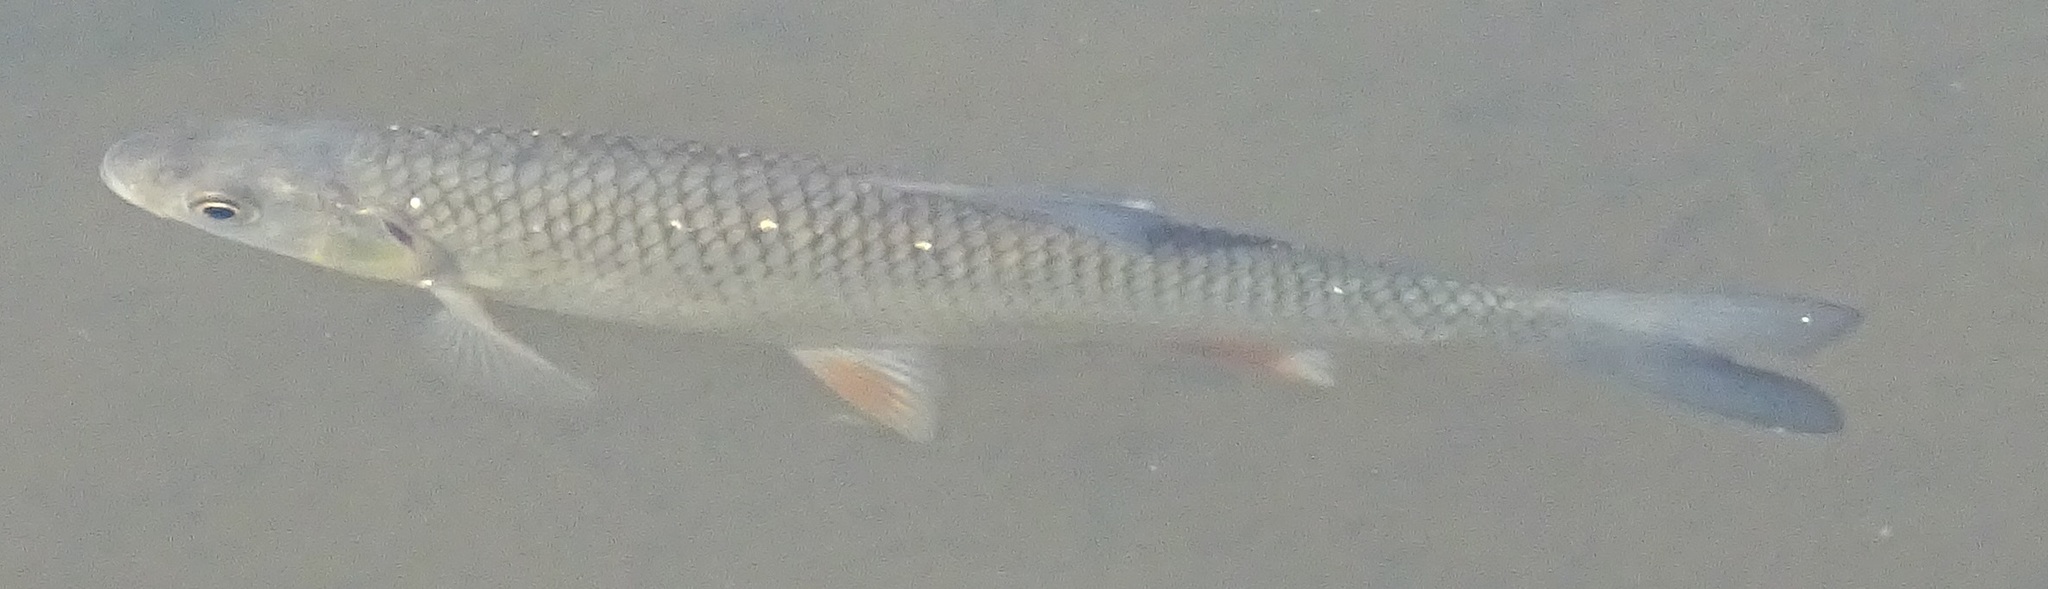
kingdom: Animalia
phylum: Chordata
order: Cypriniformes
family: Cyprinidae
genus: Squalius
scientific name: Squalius cephalus
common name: Chub
